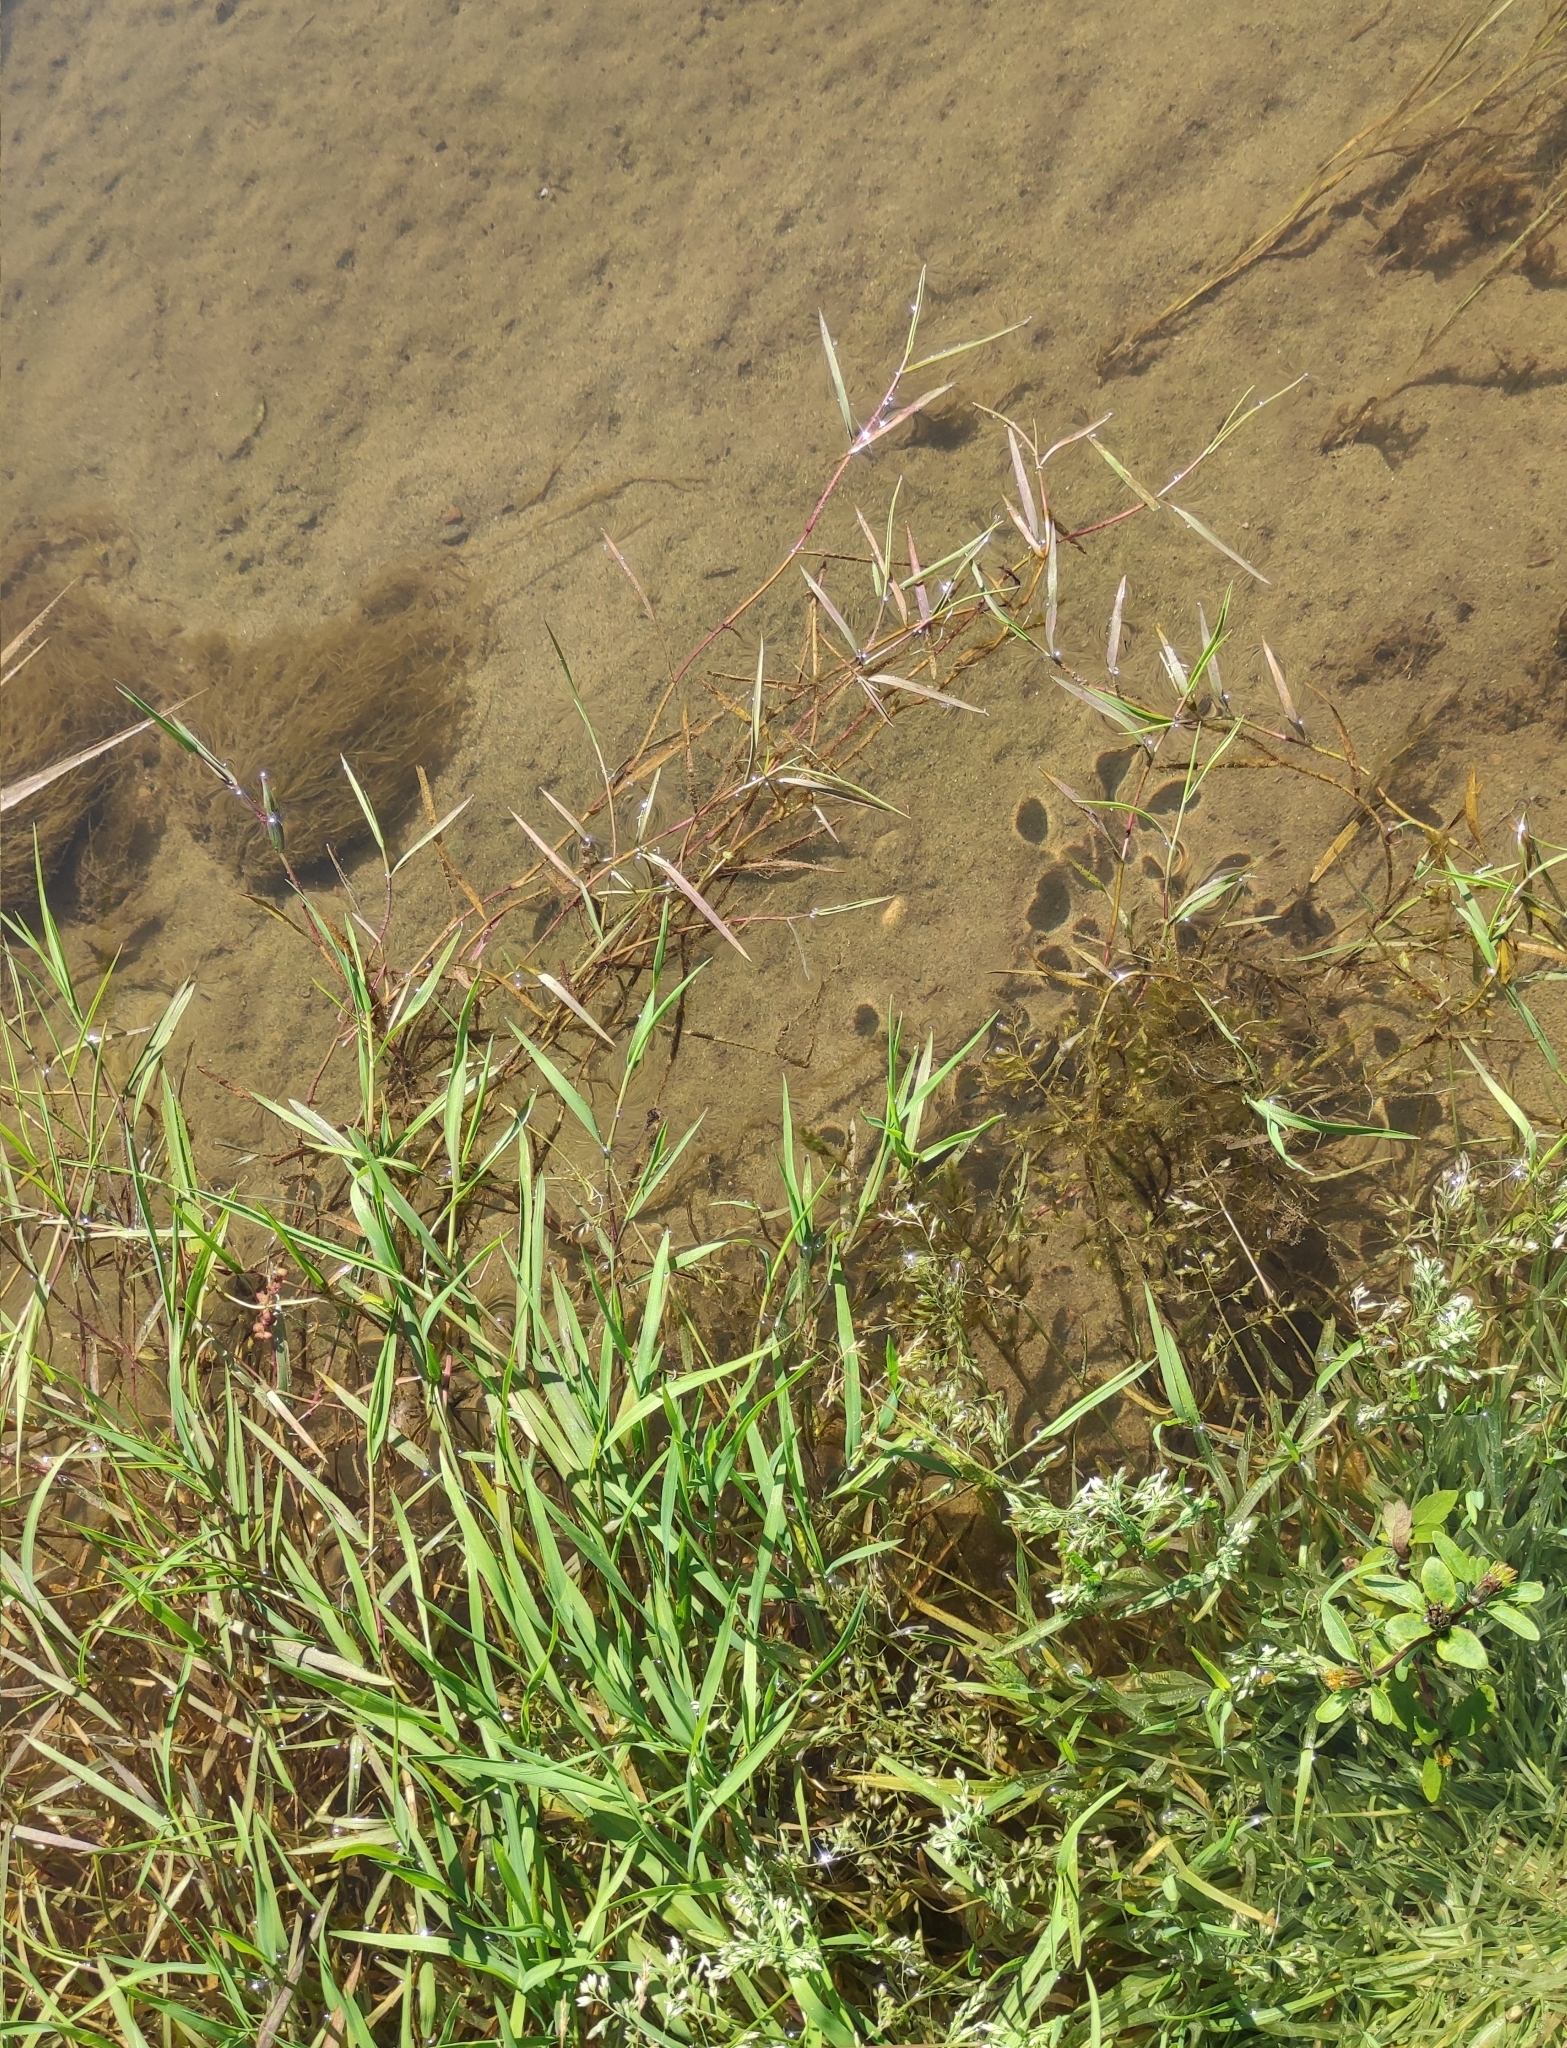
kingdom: Plantae
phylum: Tracheophyta
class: Liliopsida
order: Poales
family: Poaceae
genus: Agrostis
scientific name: Agrostis stolonifera
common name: Creeping bentgrass
